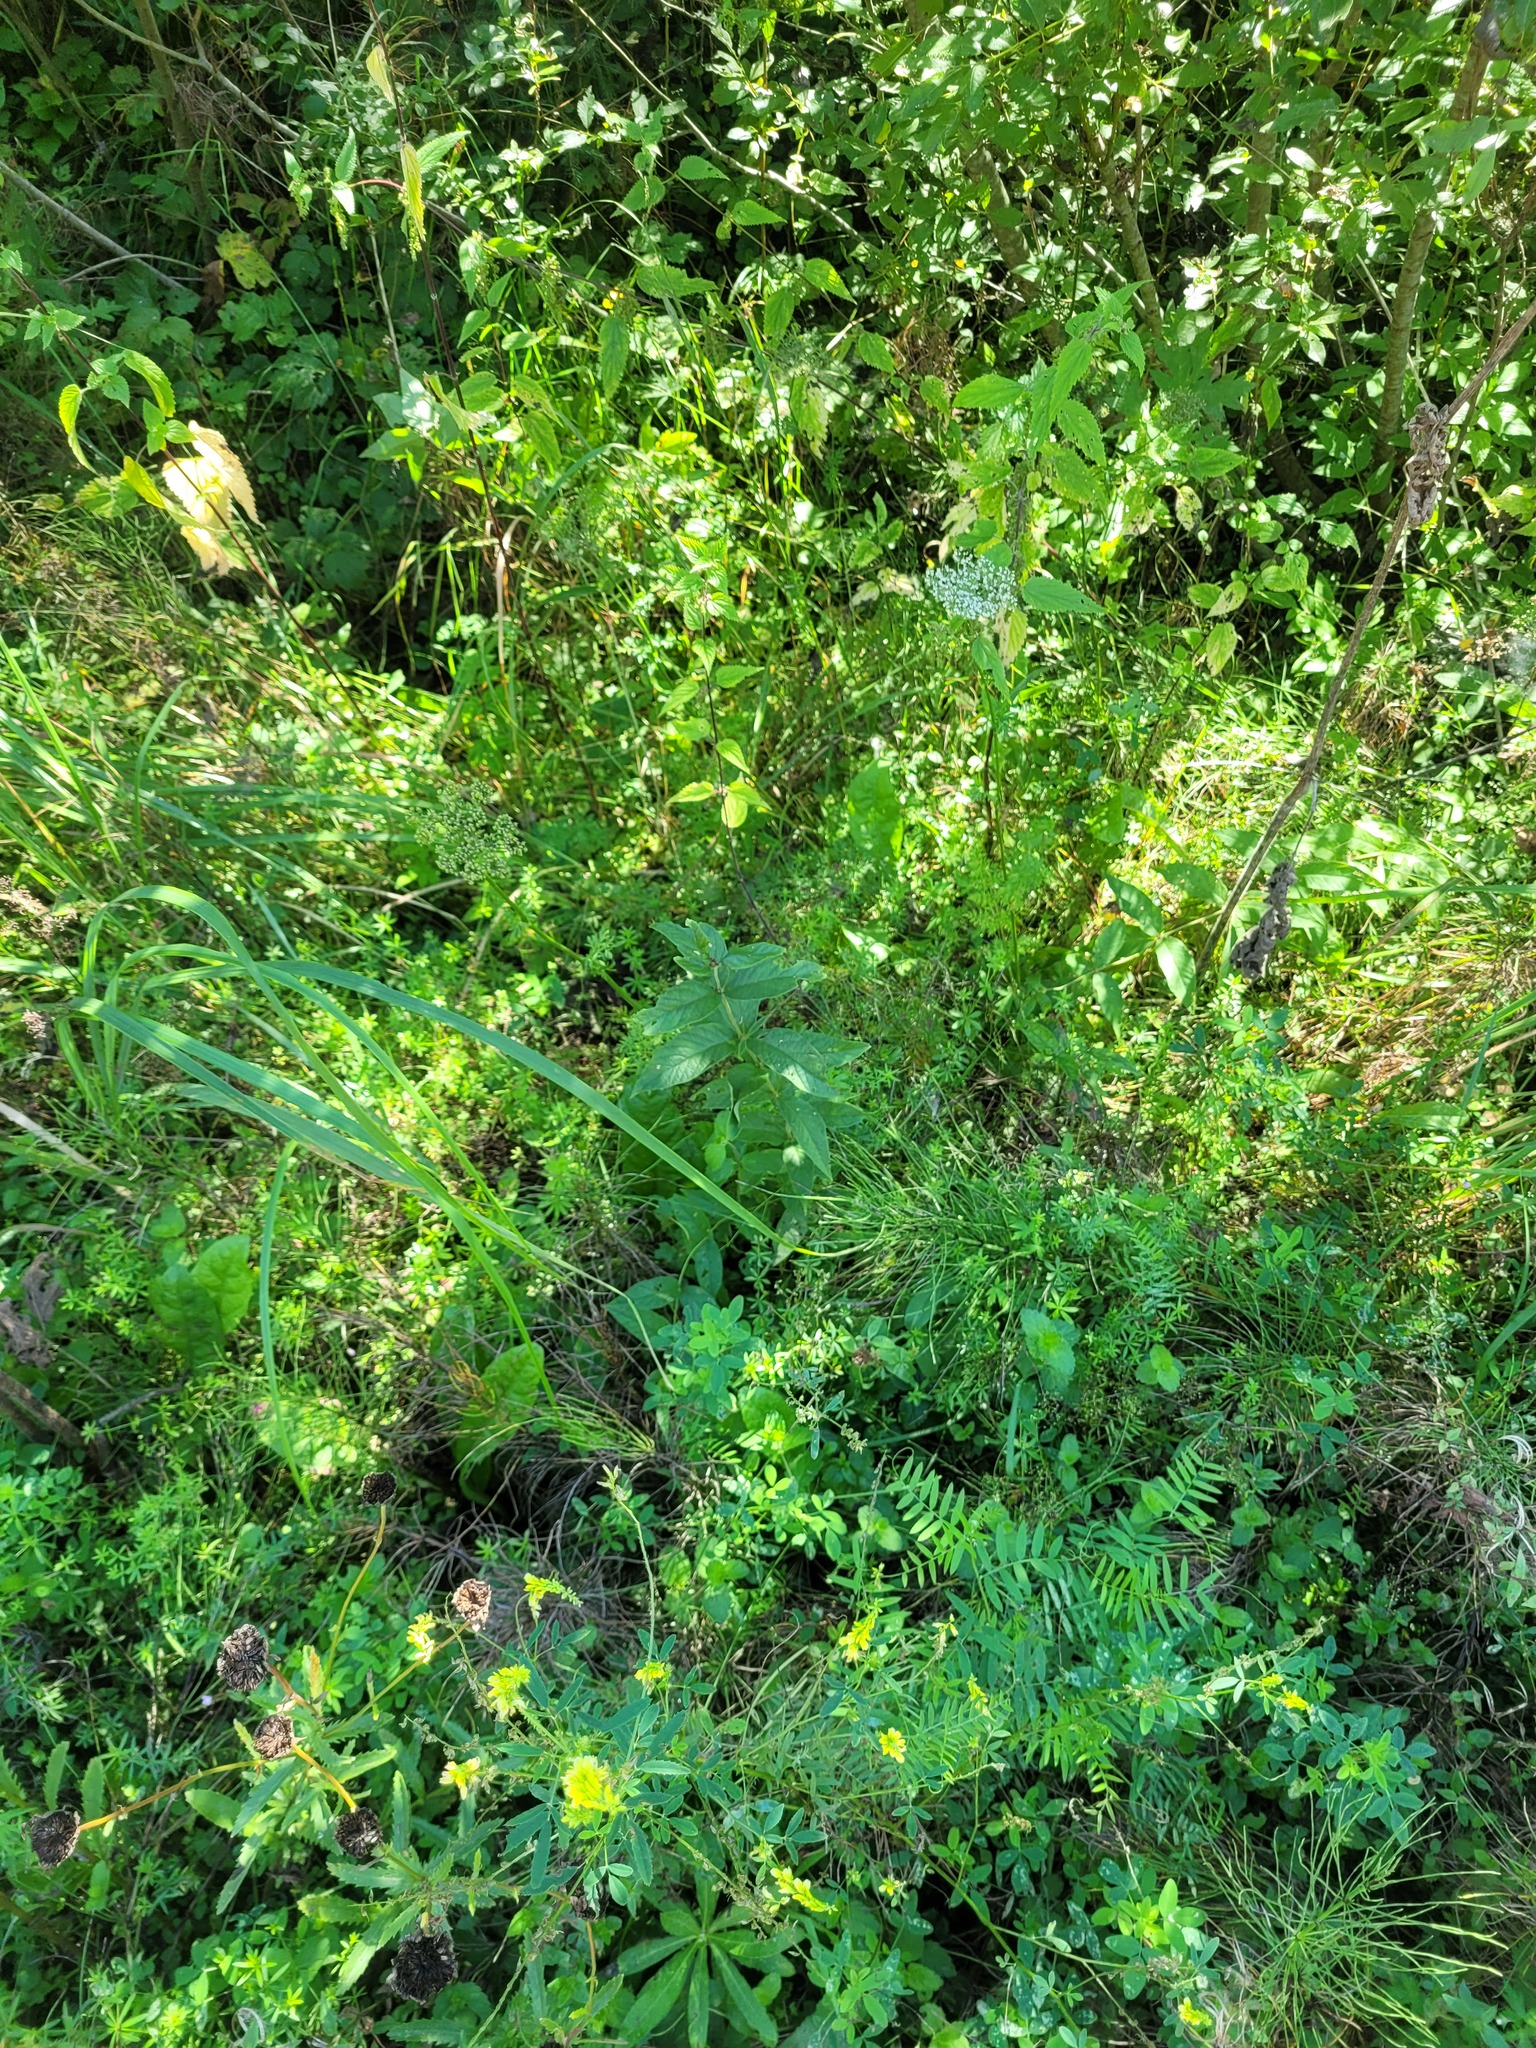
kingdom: Plantae
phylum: Tracheophyta
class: Magnoliopsida
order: Ericales
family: Primulaceae
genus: Lysimachia
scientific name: Lysimachia vulgaris
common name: Yellow loosestrife
